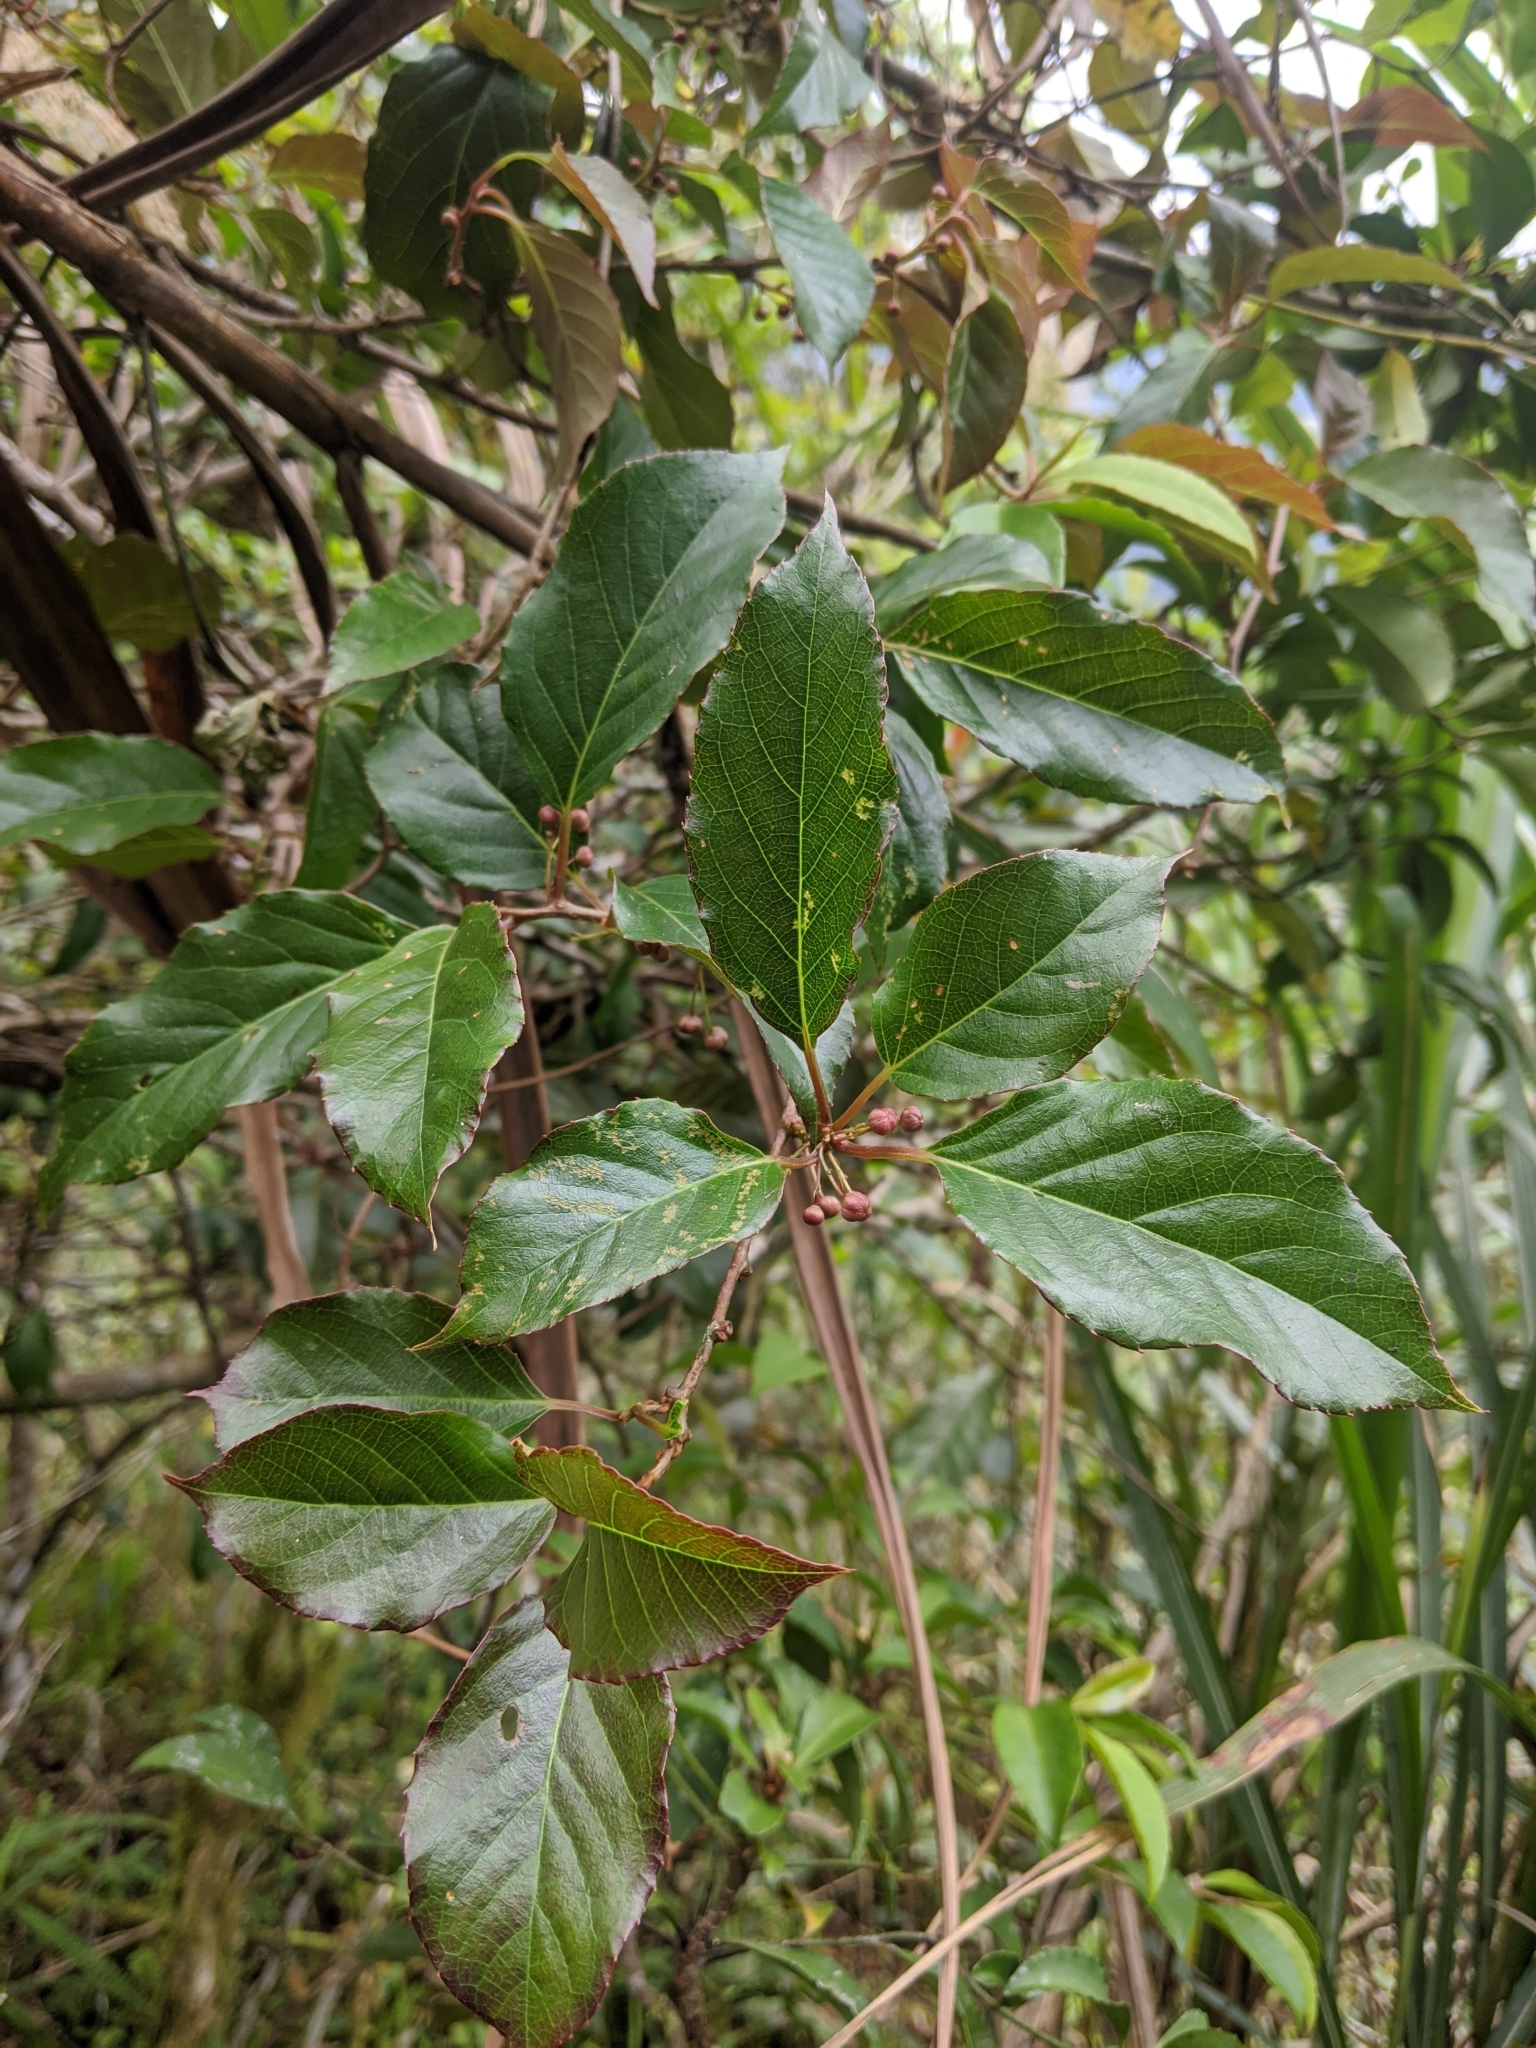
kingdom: Plantae
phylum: Tracheophyta
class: Magnoliopsida
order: Ericales
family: Actinidiaceae
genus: Actinidia
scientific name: Actinidia callosa
